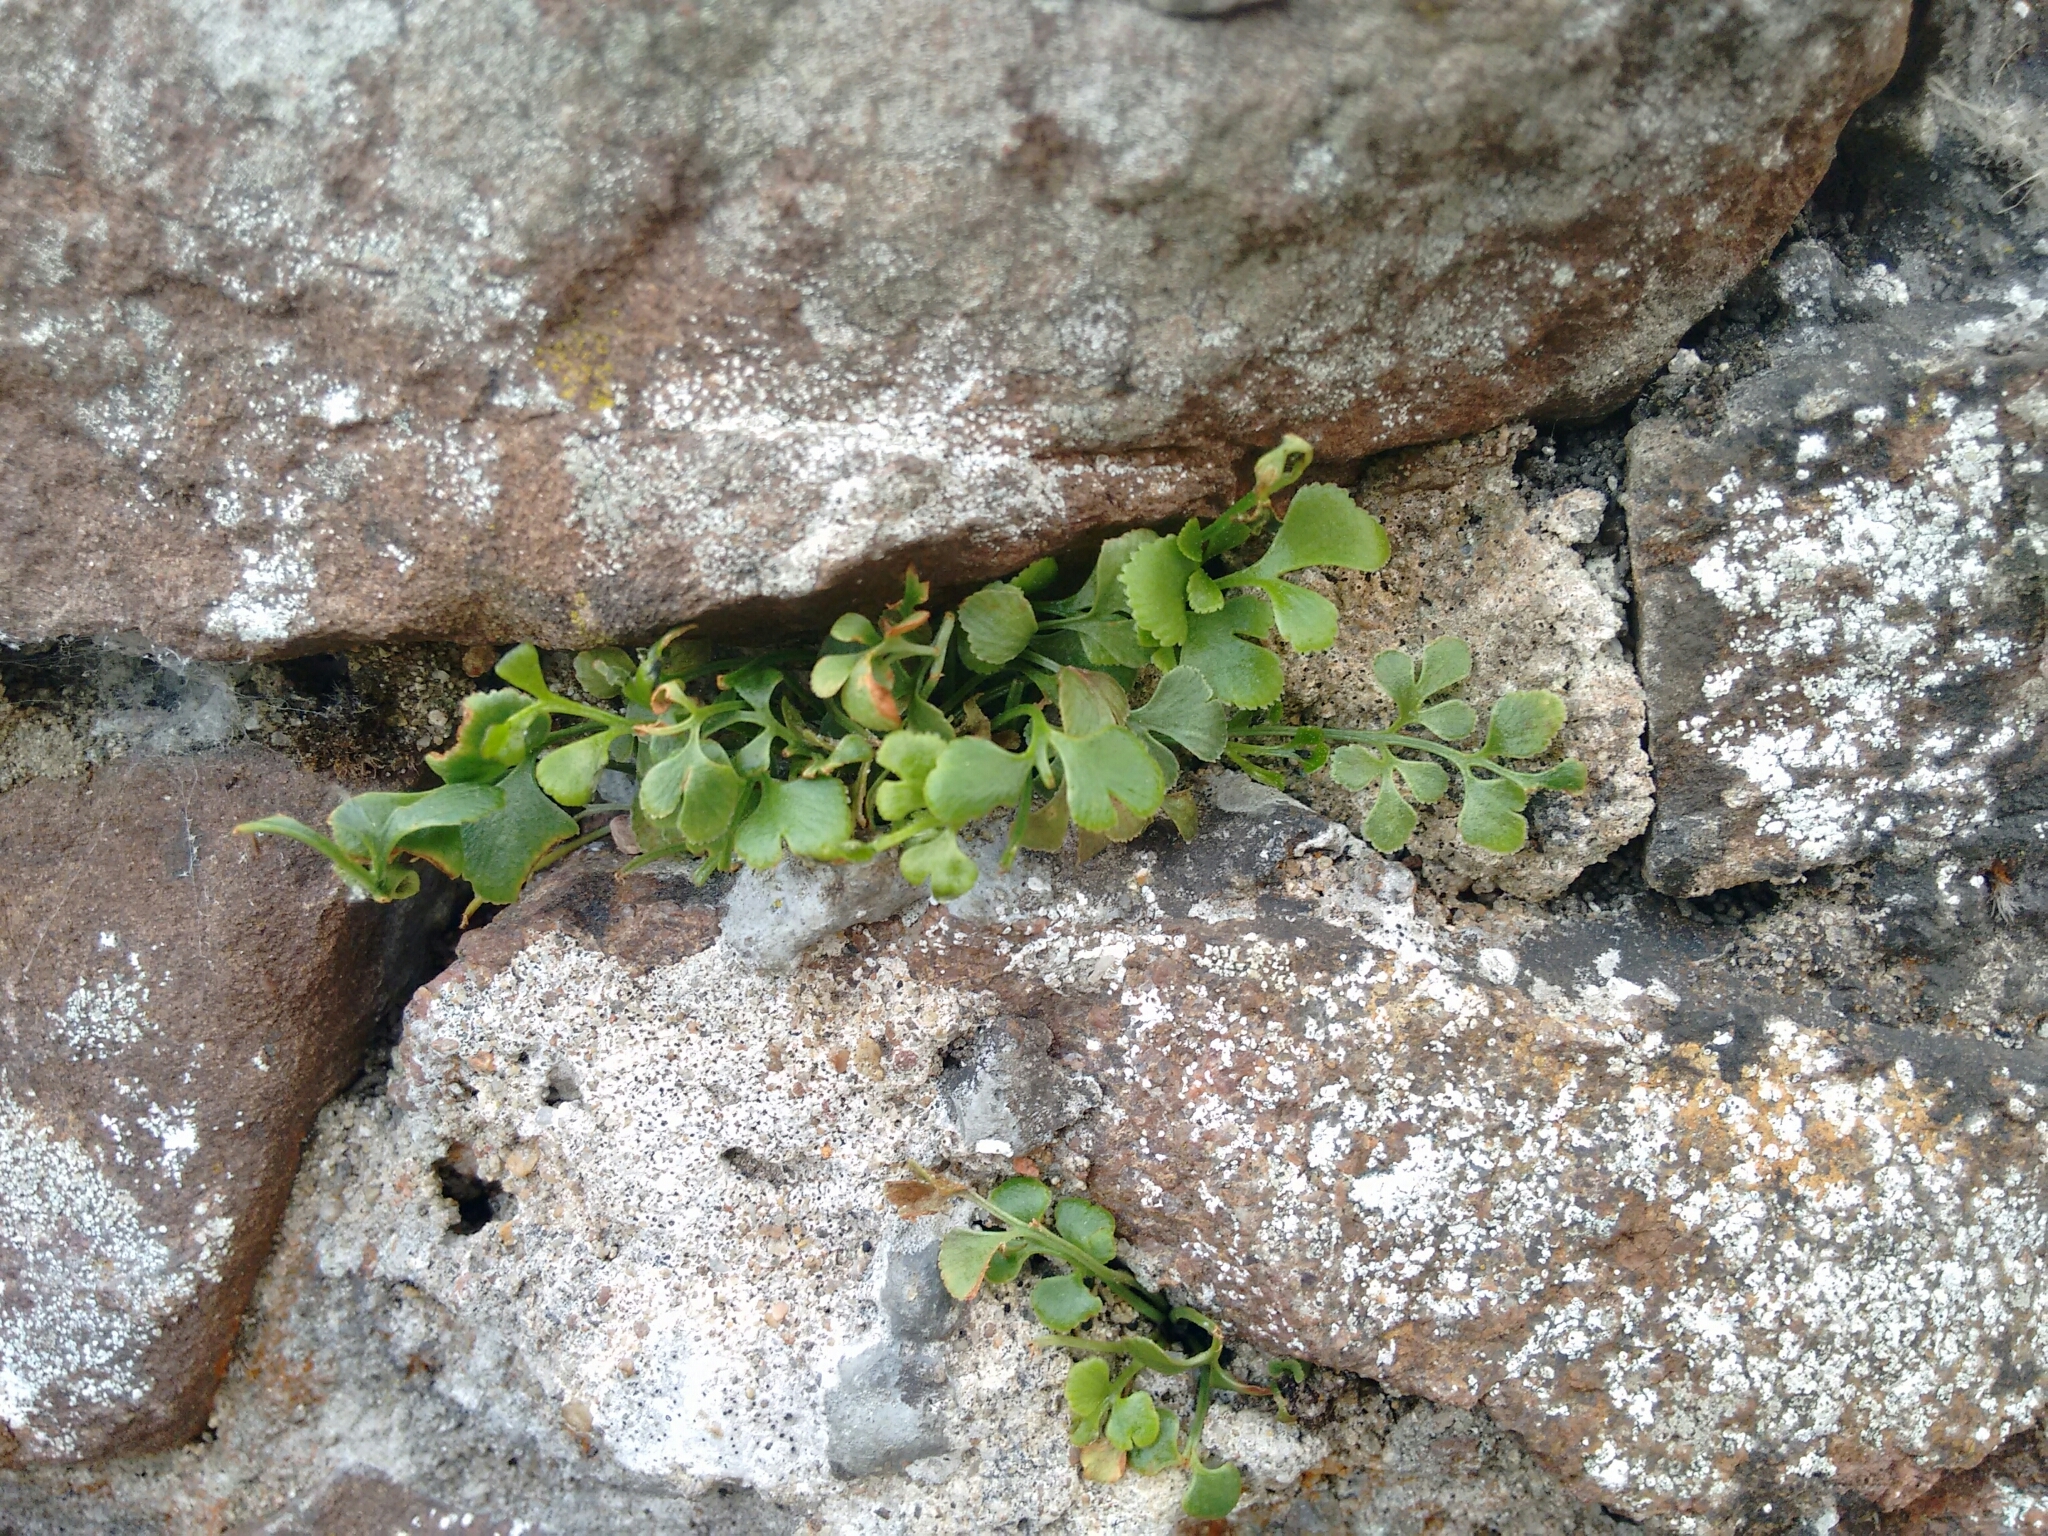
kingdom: Plantae
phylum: Tracheophyta
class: Polypodiopsida
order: Polypodiales
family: Aspleniaceae
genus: Asplenium
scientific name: Asplenium ruta-muraria
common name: Wall-rue
